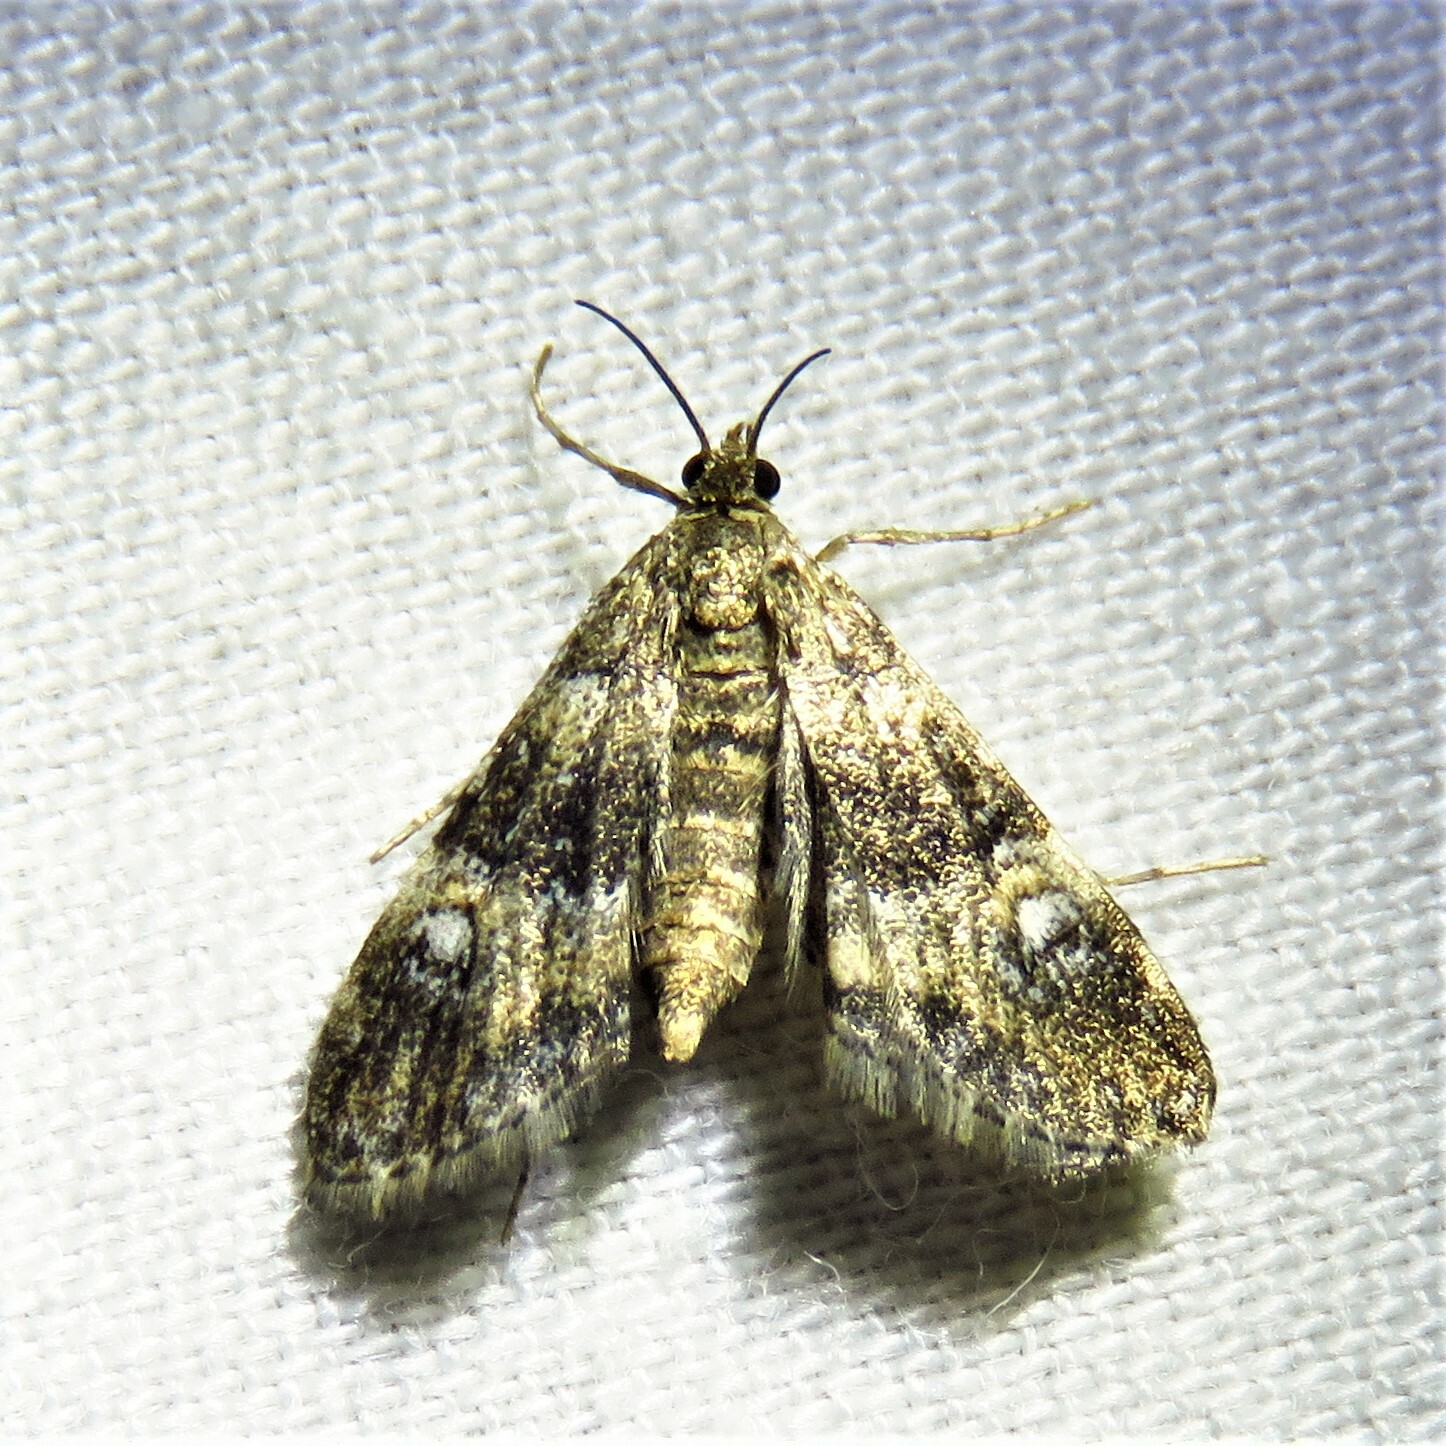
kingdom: Animalia
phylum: Arthropoda
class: Insecta
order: Lepidoptera
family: Crambidae
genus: Elophila
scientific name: Elophila obliteralis
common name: Waterlily leafcutter moth
